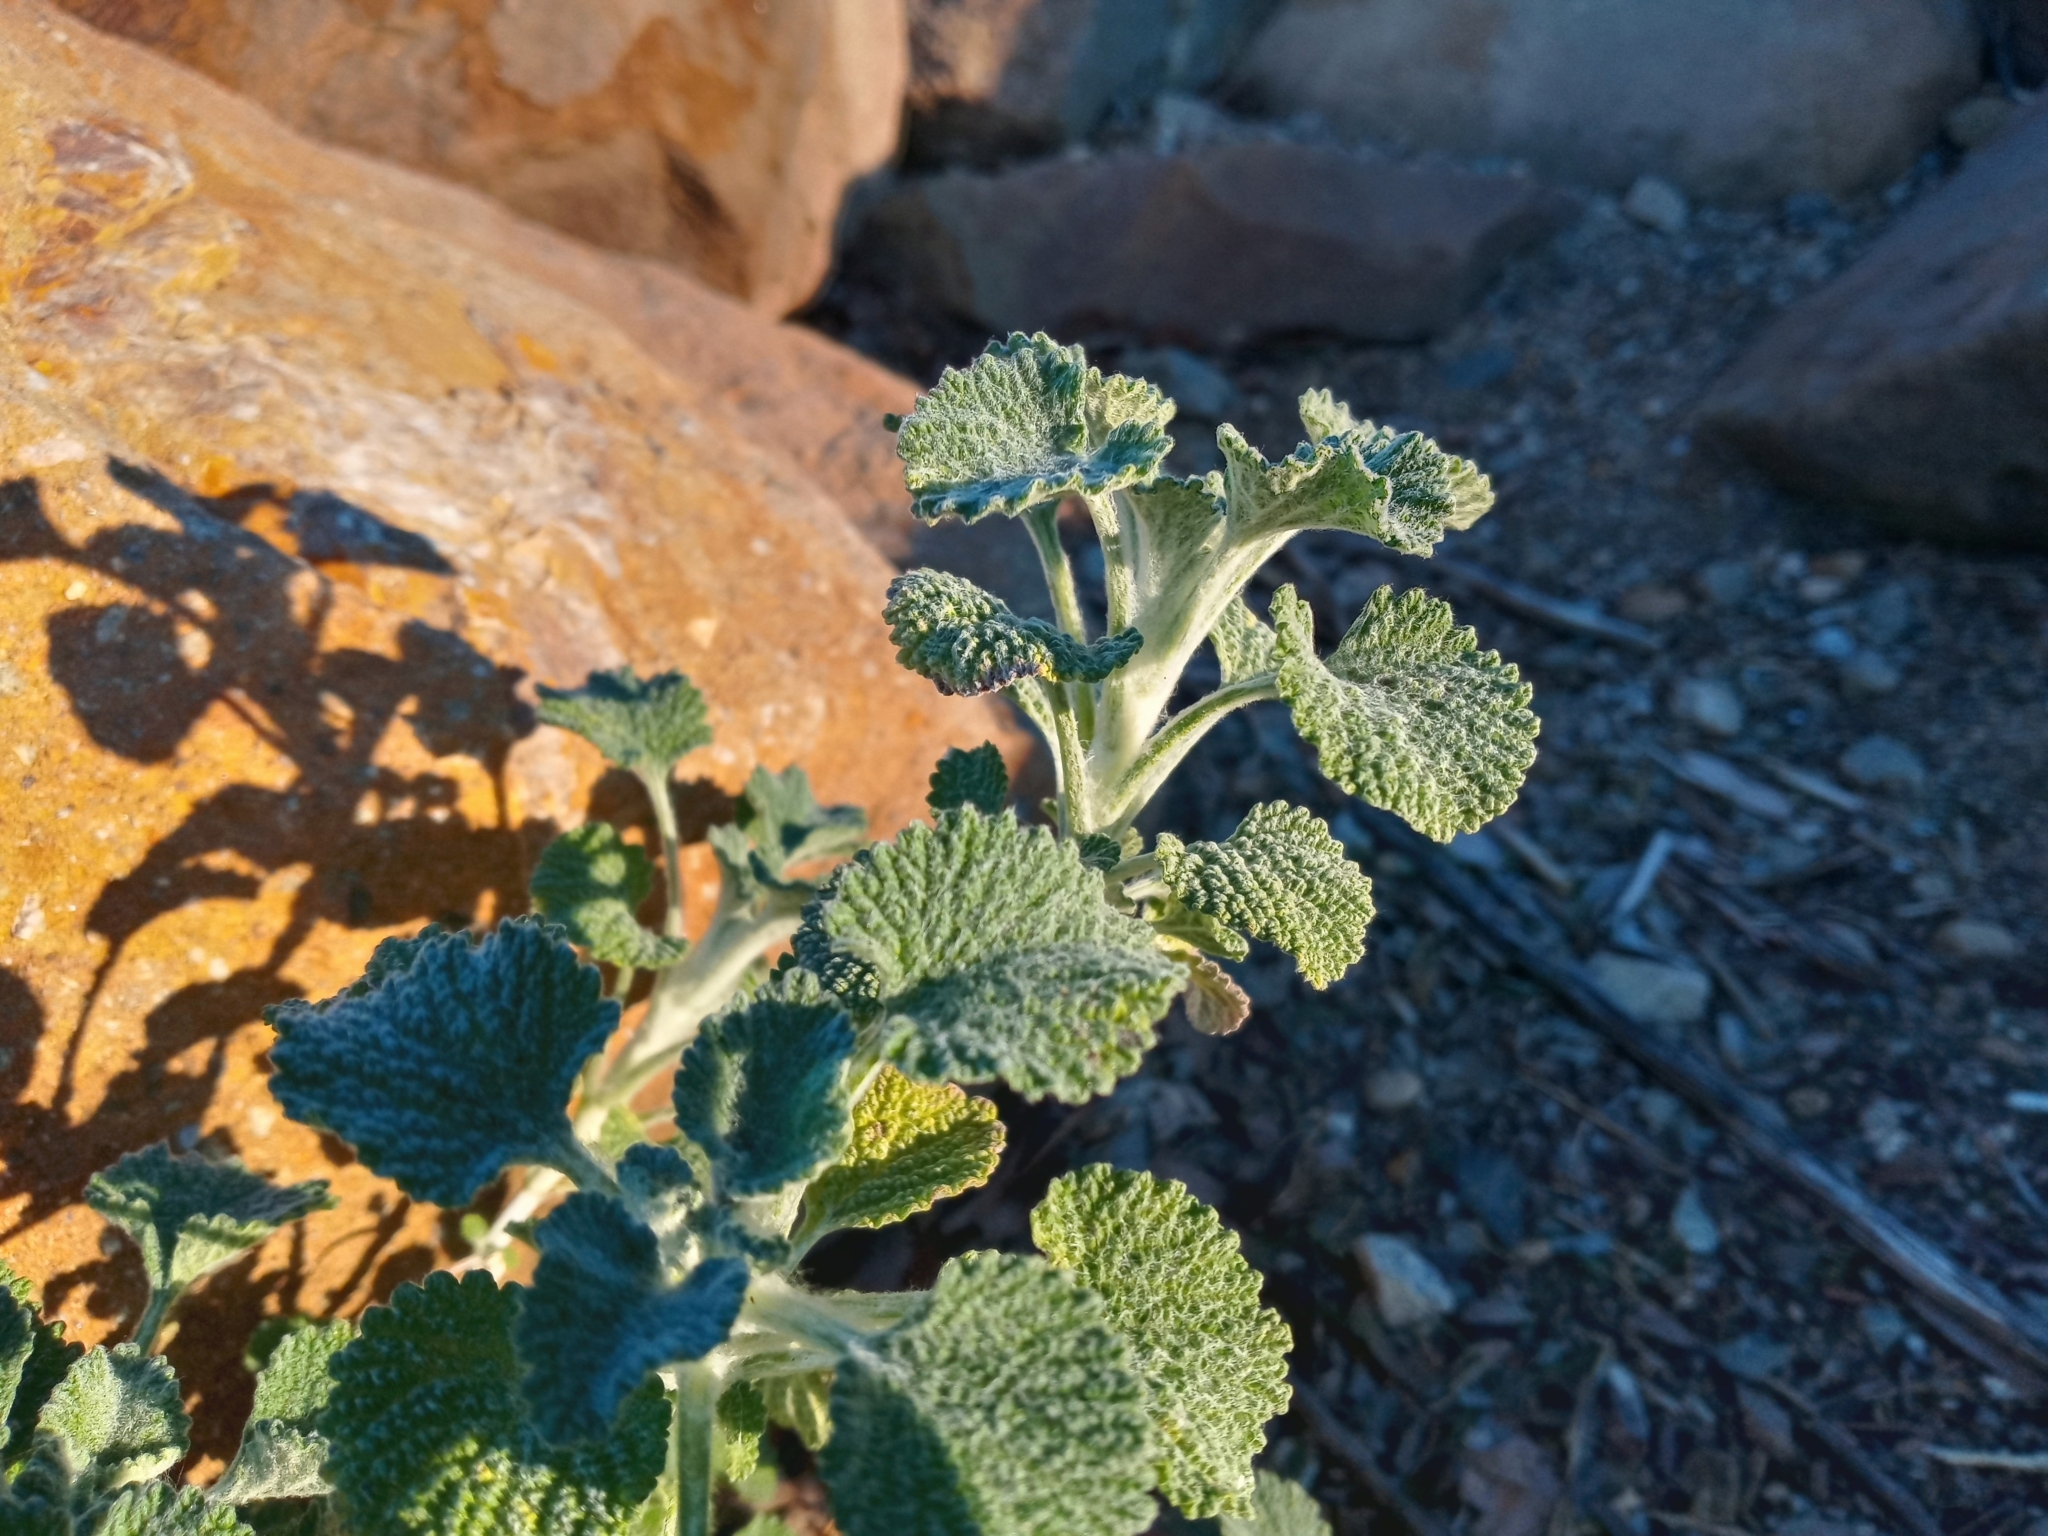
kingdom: Plantae
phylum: Tracheophyta
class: Magnoliopsida
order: Lamiales
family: Lamiaceae
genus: Marrubium
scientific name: Marrubium vulgare
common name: Horehound
